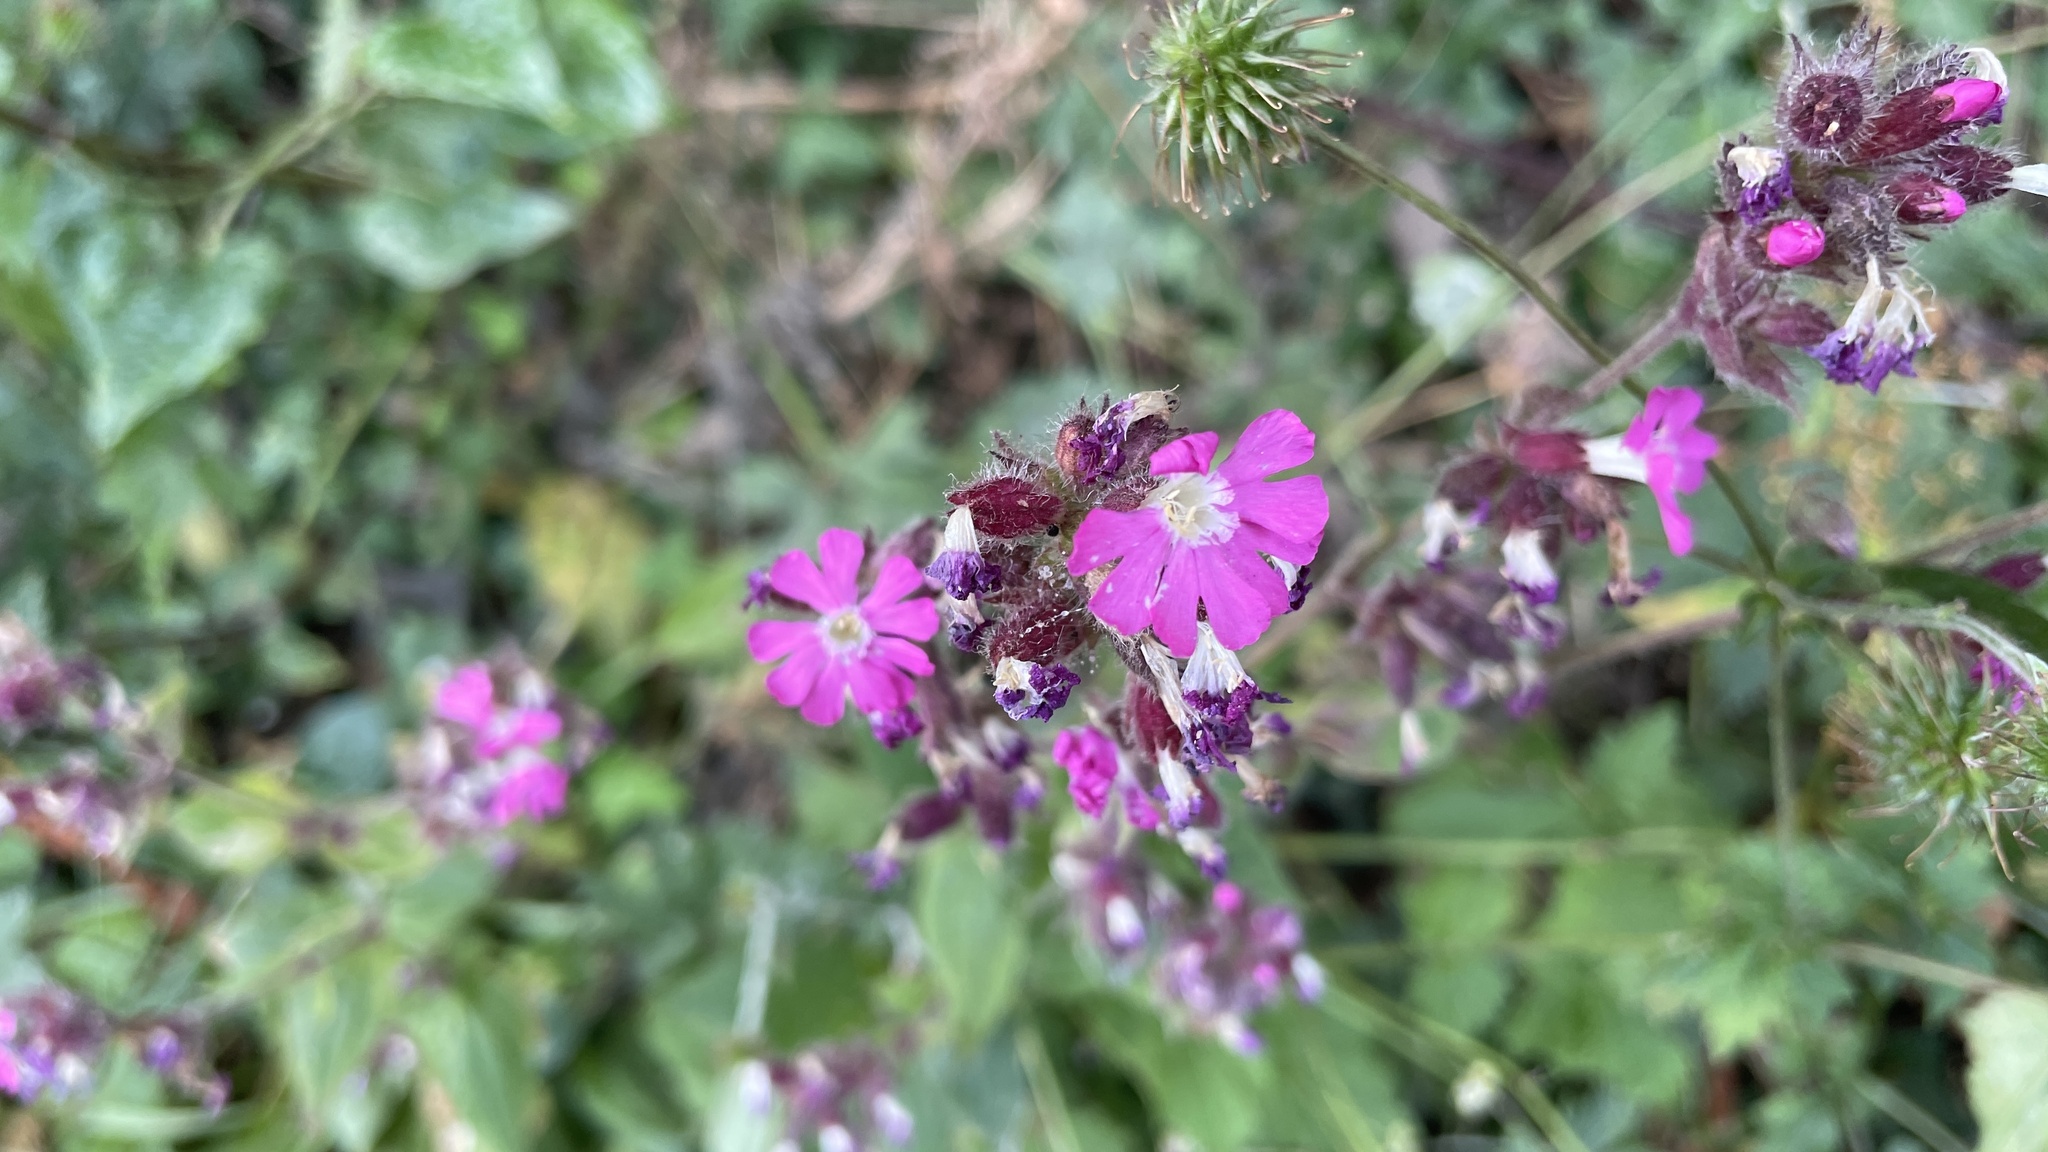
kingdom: Plantae
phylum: Tracheophyta
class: Magnoliopsida
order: Caryophyllales
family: Caryophyllaceae
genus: Silene
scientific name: Silene dioica
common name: Red campion
